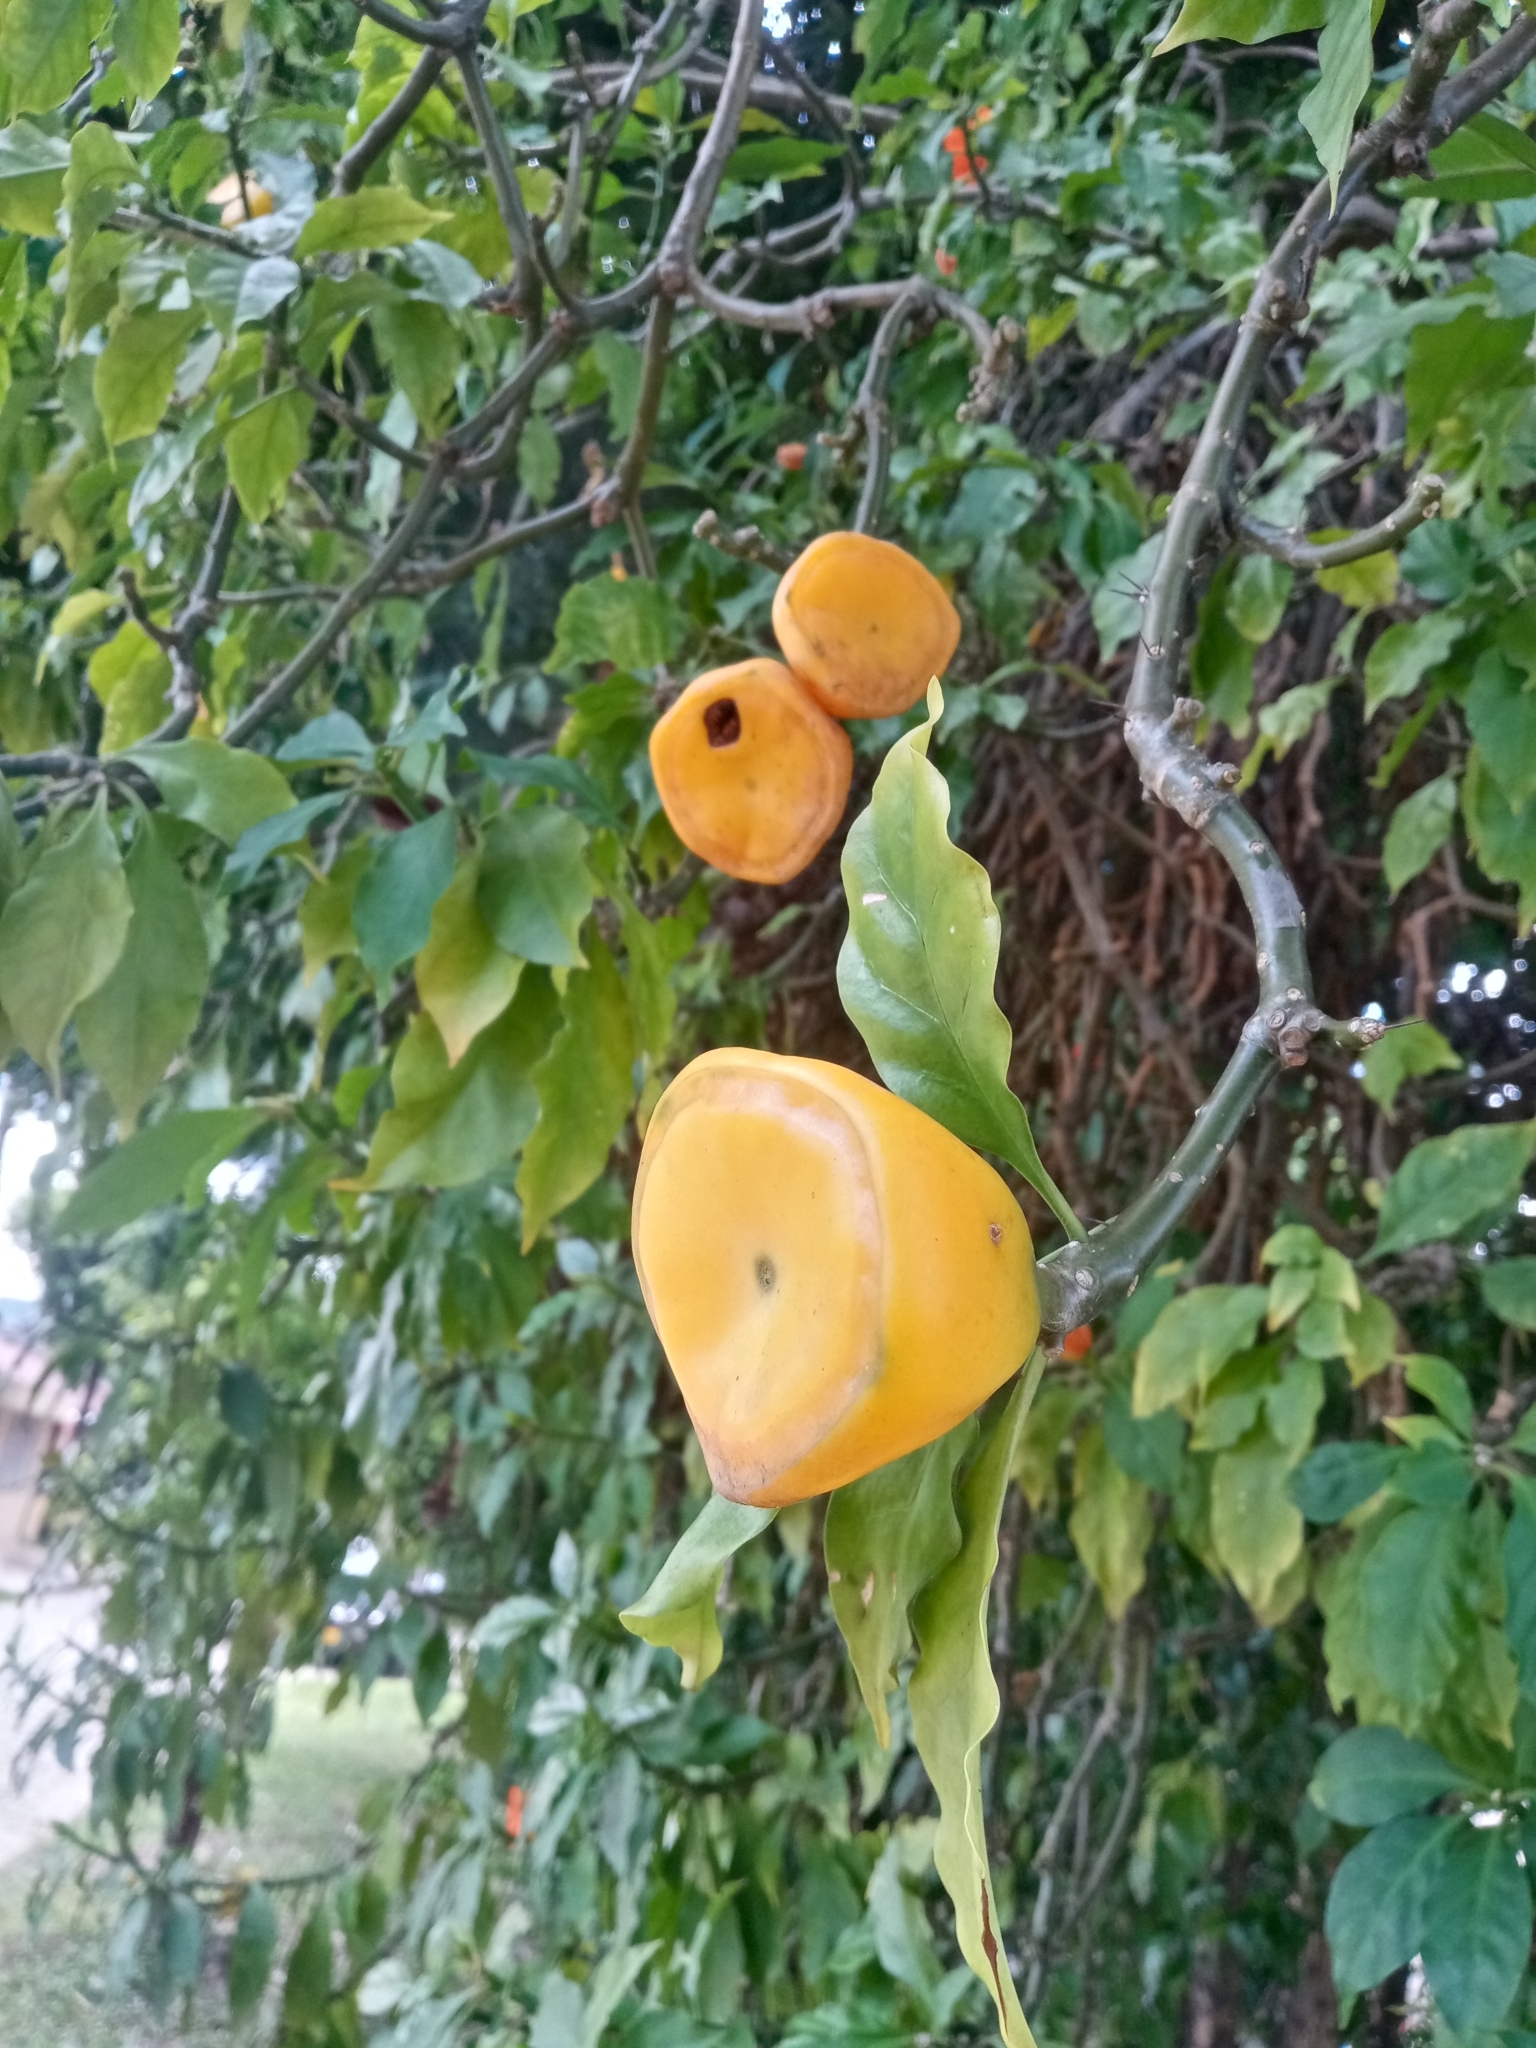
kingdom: Plantae
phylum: Tracheophyta
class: Magnoliopsida
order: Caryophyllales
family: Cactaceae
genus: Leuenbergeria
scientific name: Leuenbergeria bleo
